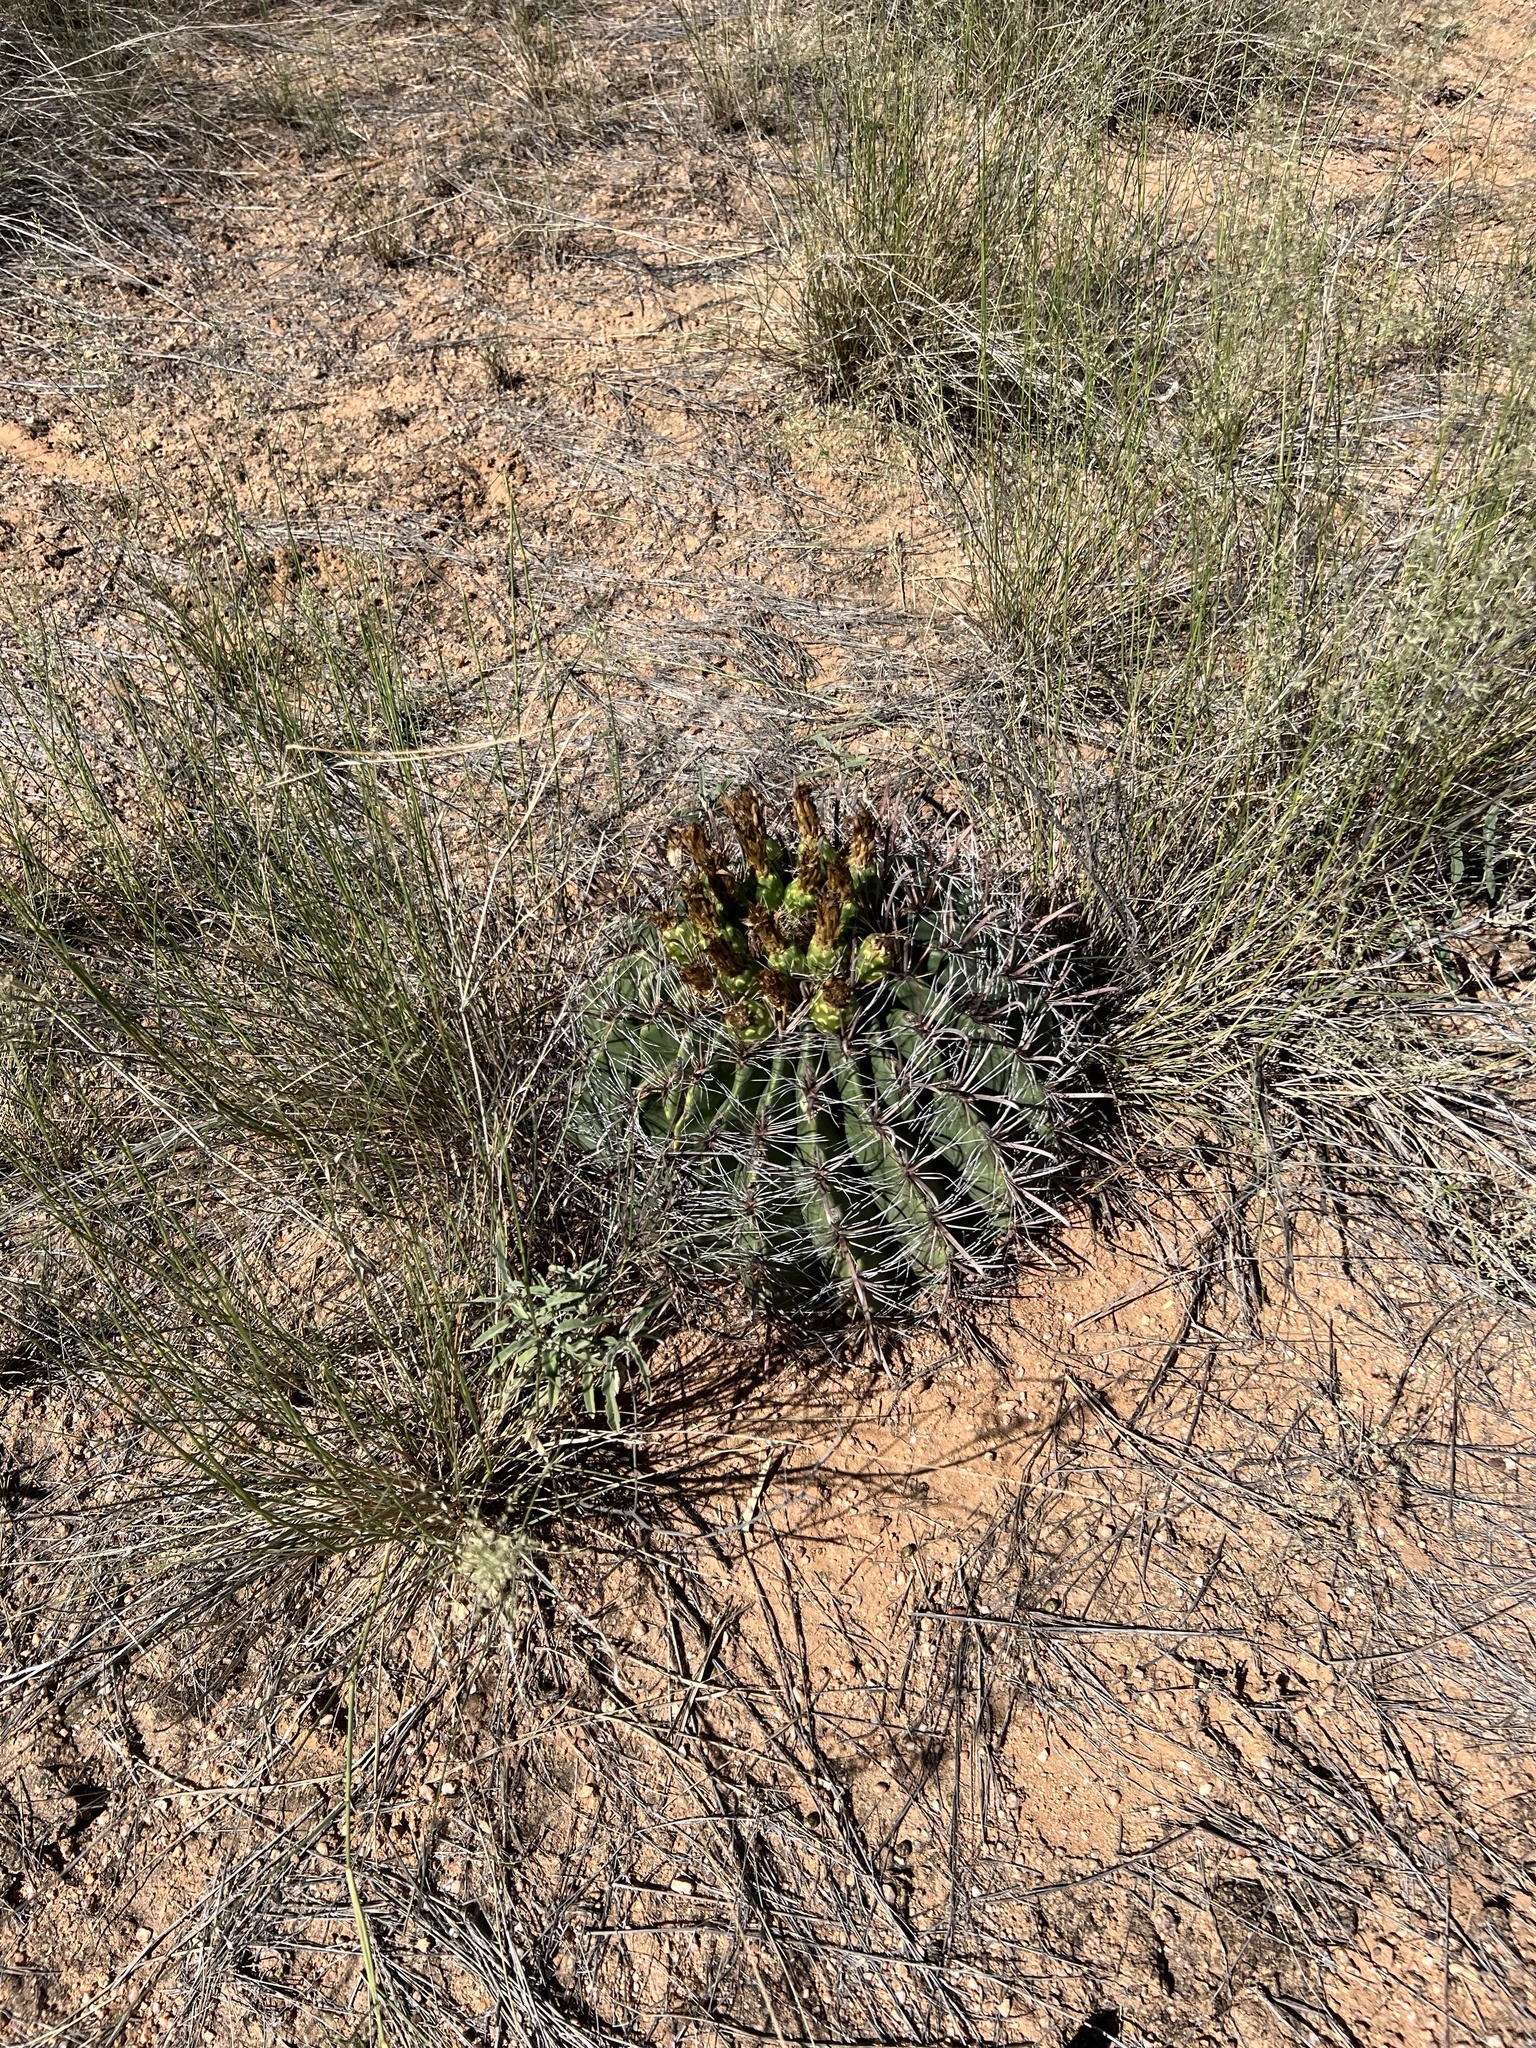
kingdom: Plantae
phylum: Tracheophyta
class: Magnoliopsida
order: Caryophyllales
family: Cactaceae
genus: Ferocactus
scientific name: Ferocactus wislizeni
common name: Candy barrel cactus
